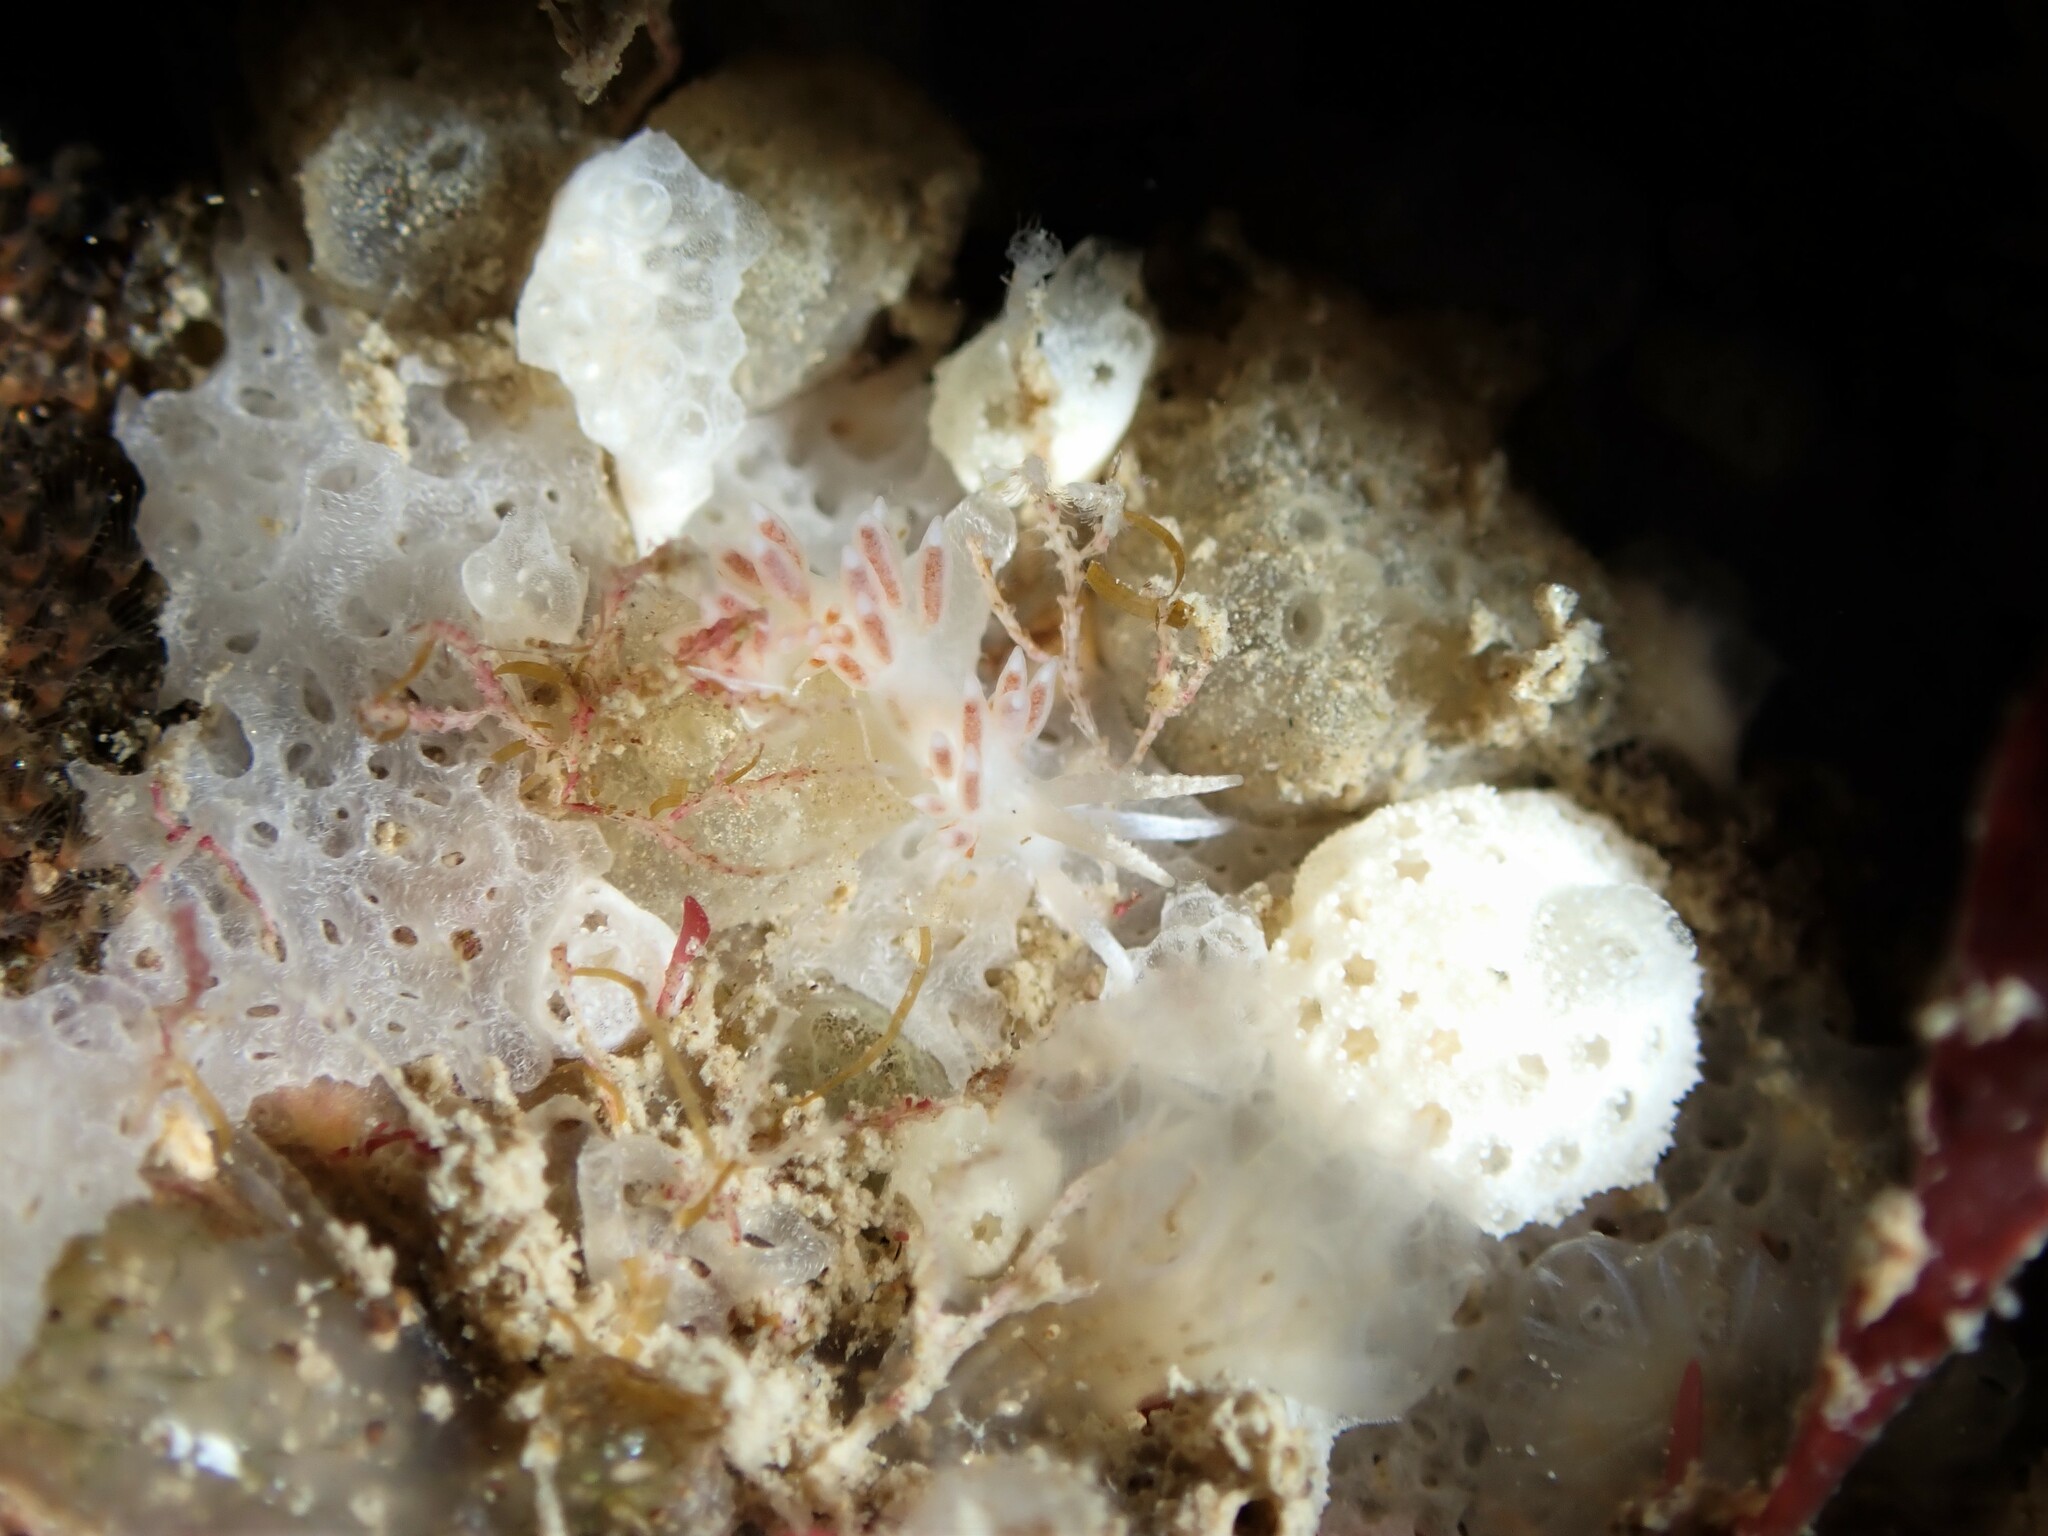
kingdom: Animalia
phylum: Mollusca
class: Gastropoda
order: Nudibranchia
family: Flabellinidae
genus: Coryphellina
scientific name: Coryphellina albomarginata
